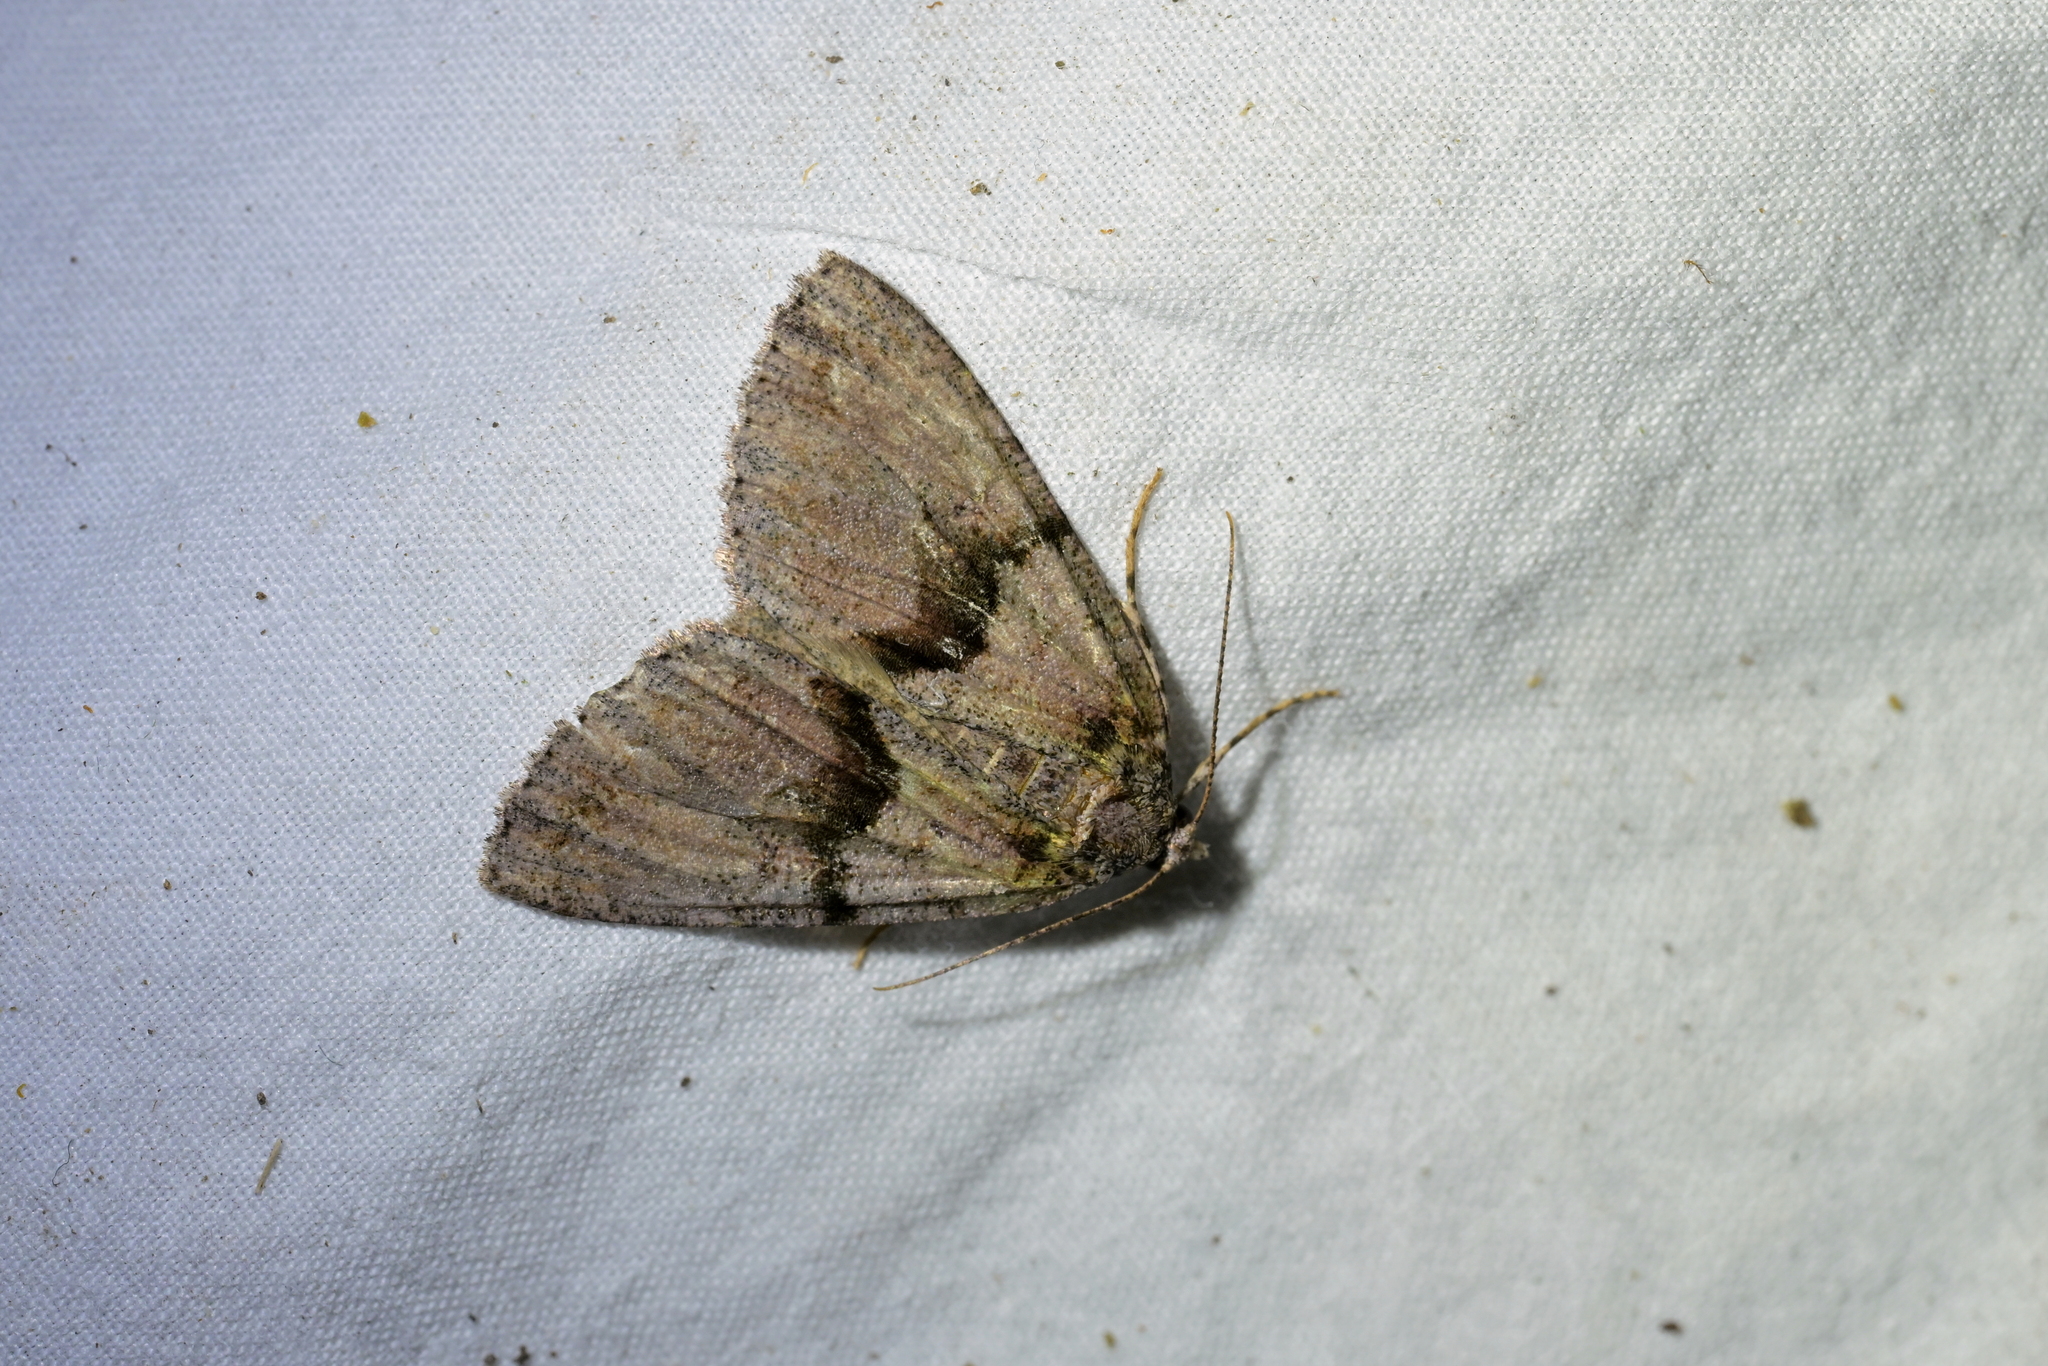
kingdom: Animalia
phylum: Arthropoda
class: Insecta
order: Lepidoptera
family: Geometridae
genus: Pseudocoremia
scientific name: Pseudocoremia suavis
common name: Common forest looper
